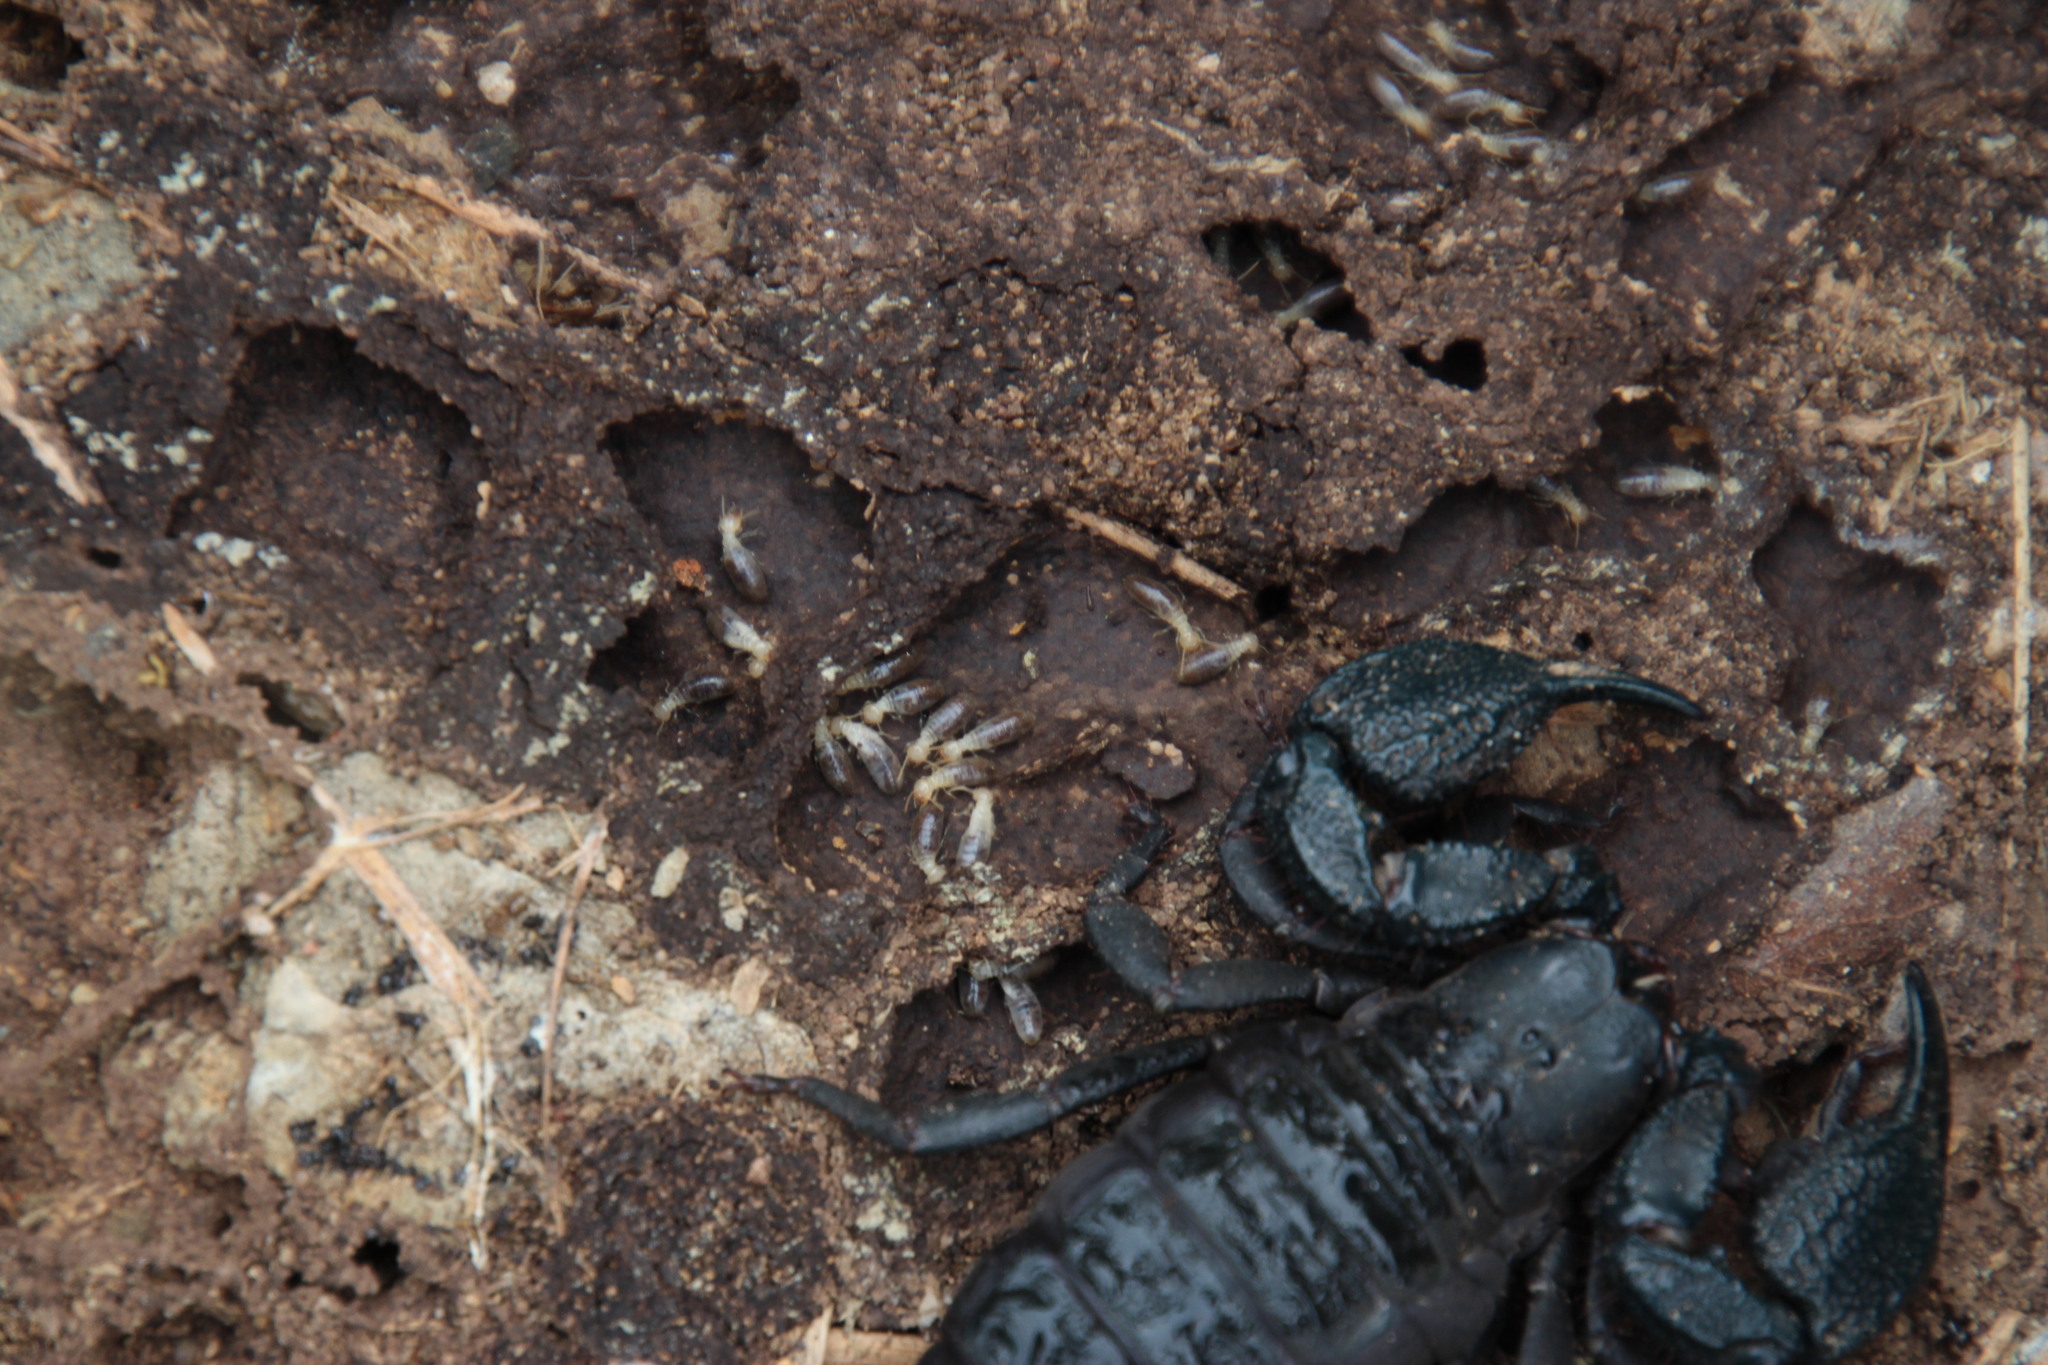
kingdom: Animalia
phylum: Arthropoda
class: Arachnida
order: Scorpiones
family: Hormuridae
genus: Opisthacanthus
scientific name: Opisthacanthus capensis
